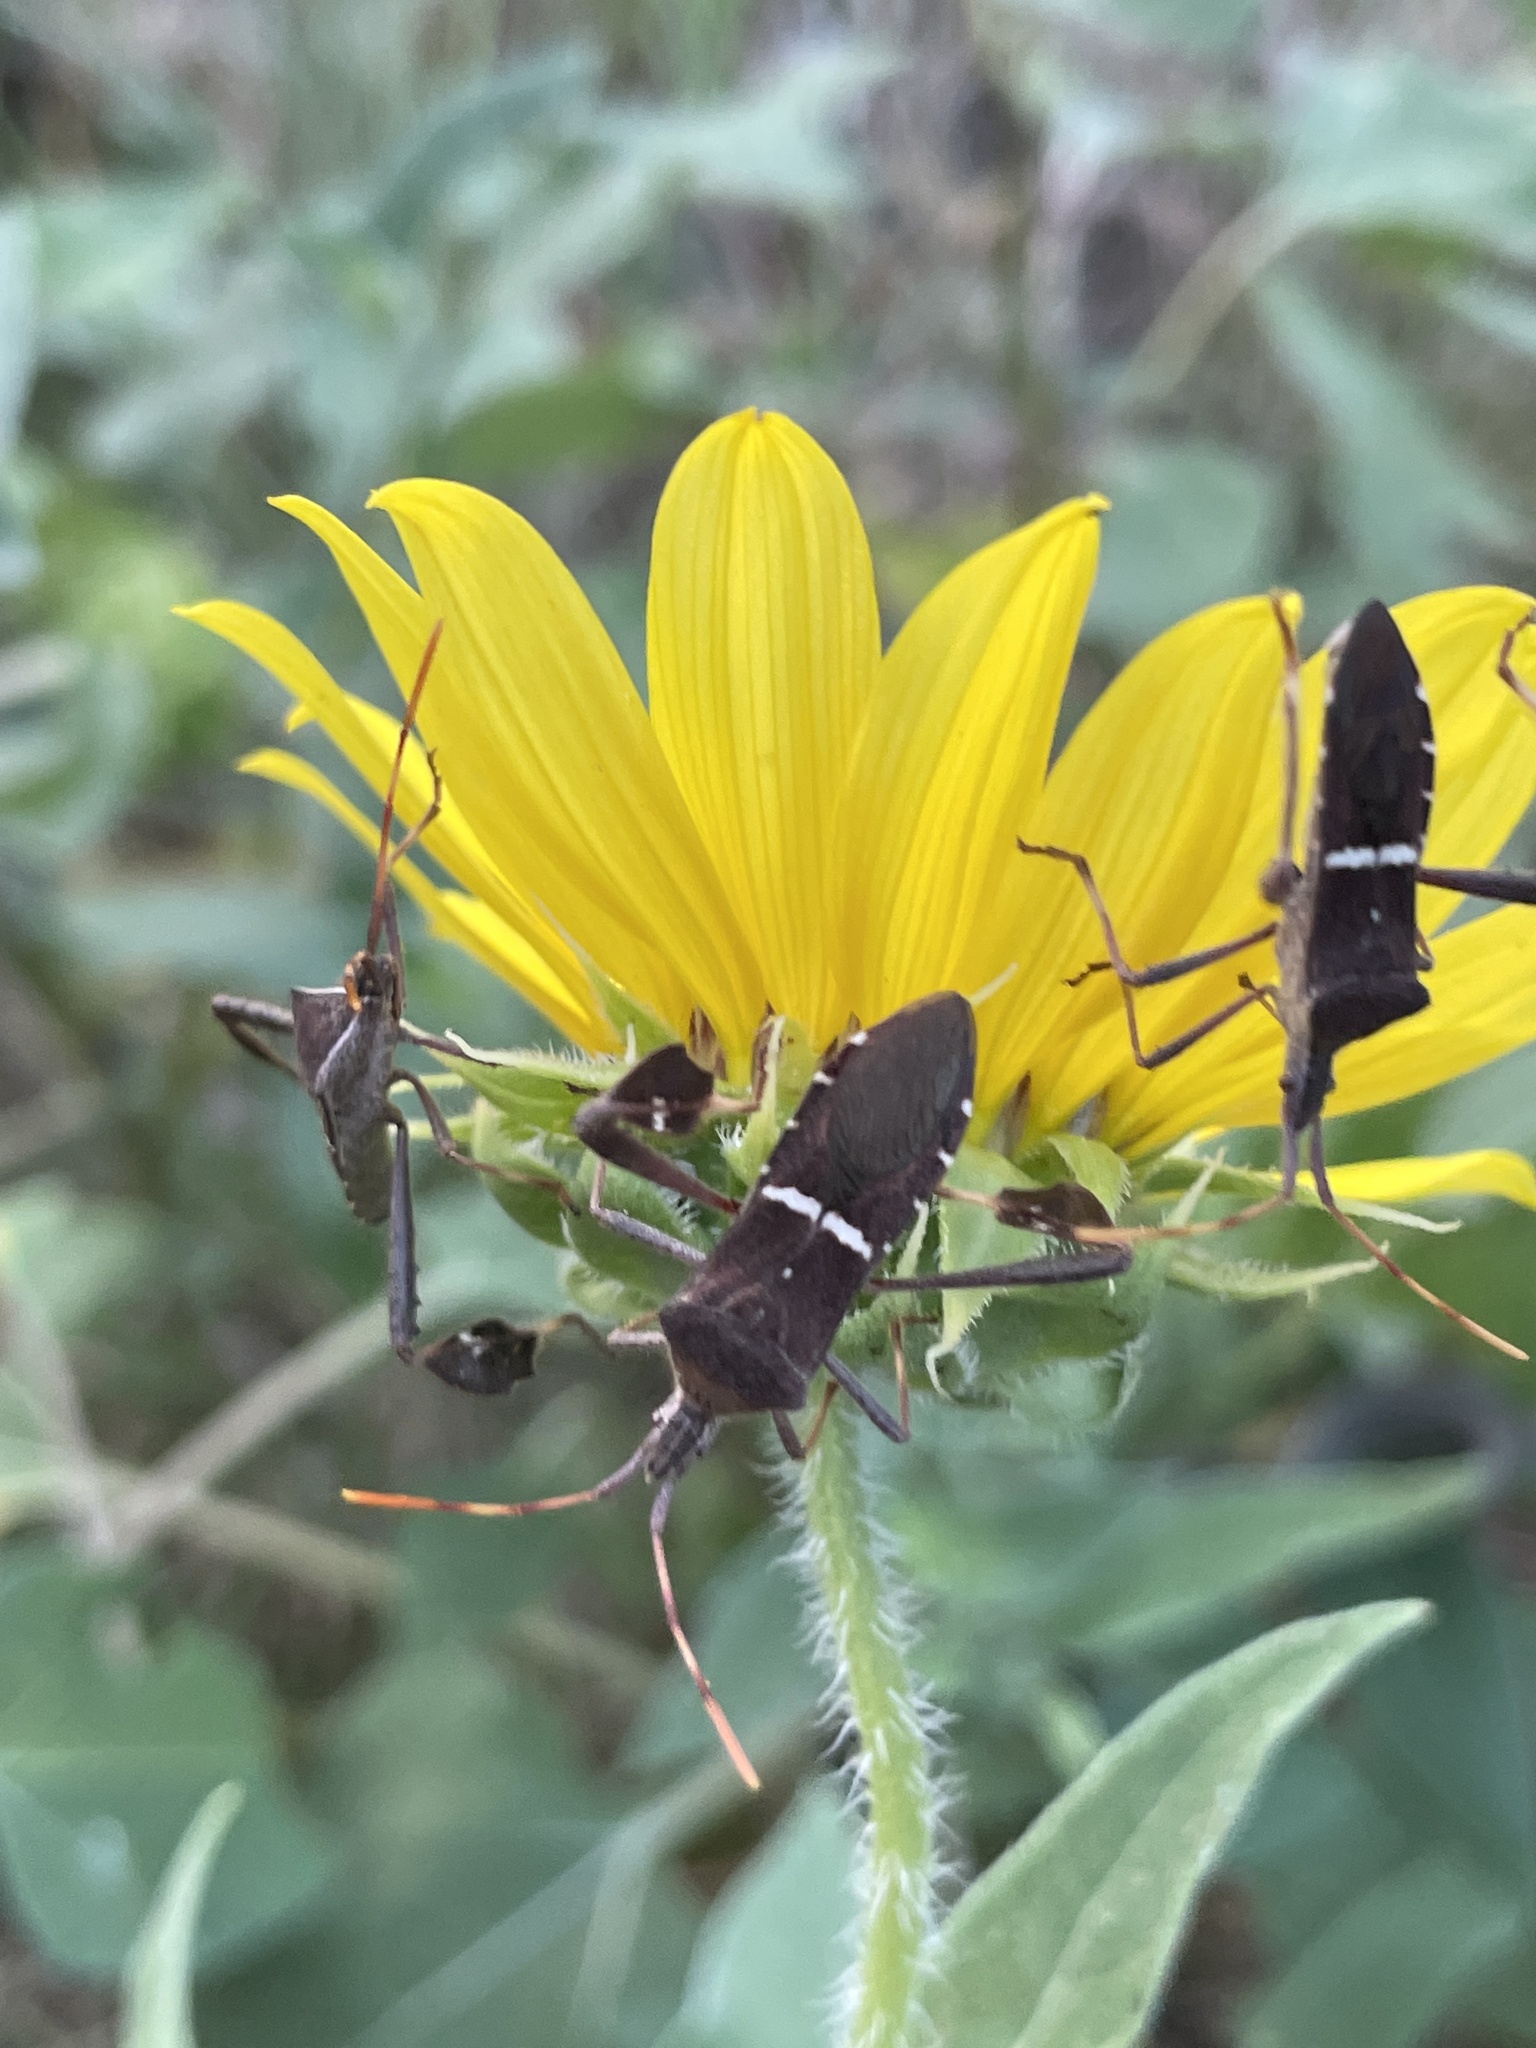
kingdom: Animalia
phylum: Arthropoda
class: Insecta
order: Hemiptera
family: Coreidae
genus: Leptoglossus
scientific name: Leptoglossus phyllopus
